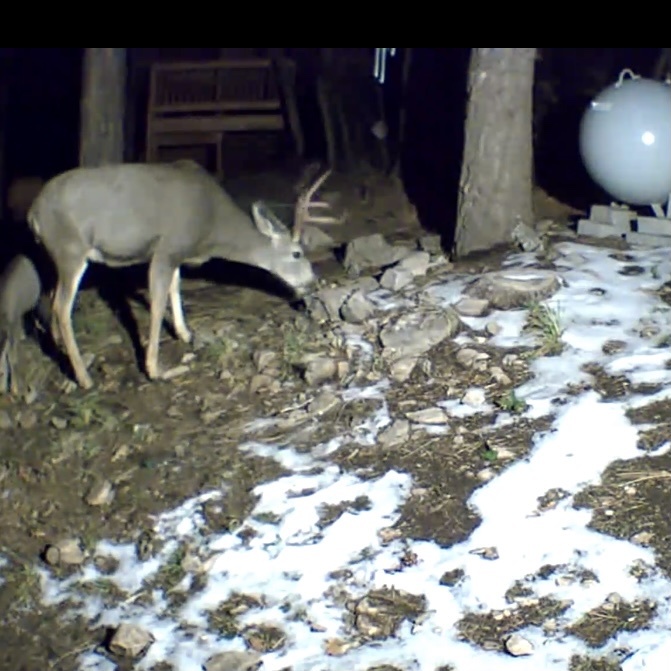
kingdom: Animalia
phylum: Chordata
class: Mammalia
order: Artiodactyla
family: Cervidae
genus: Odocoileus
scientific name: Odocoileus hemionus
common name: Mule deer
